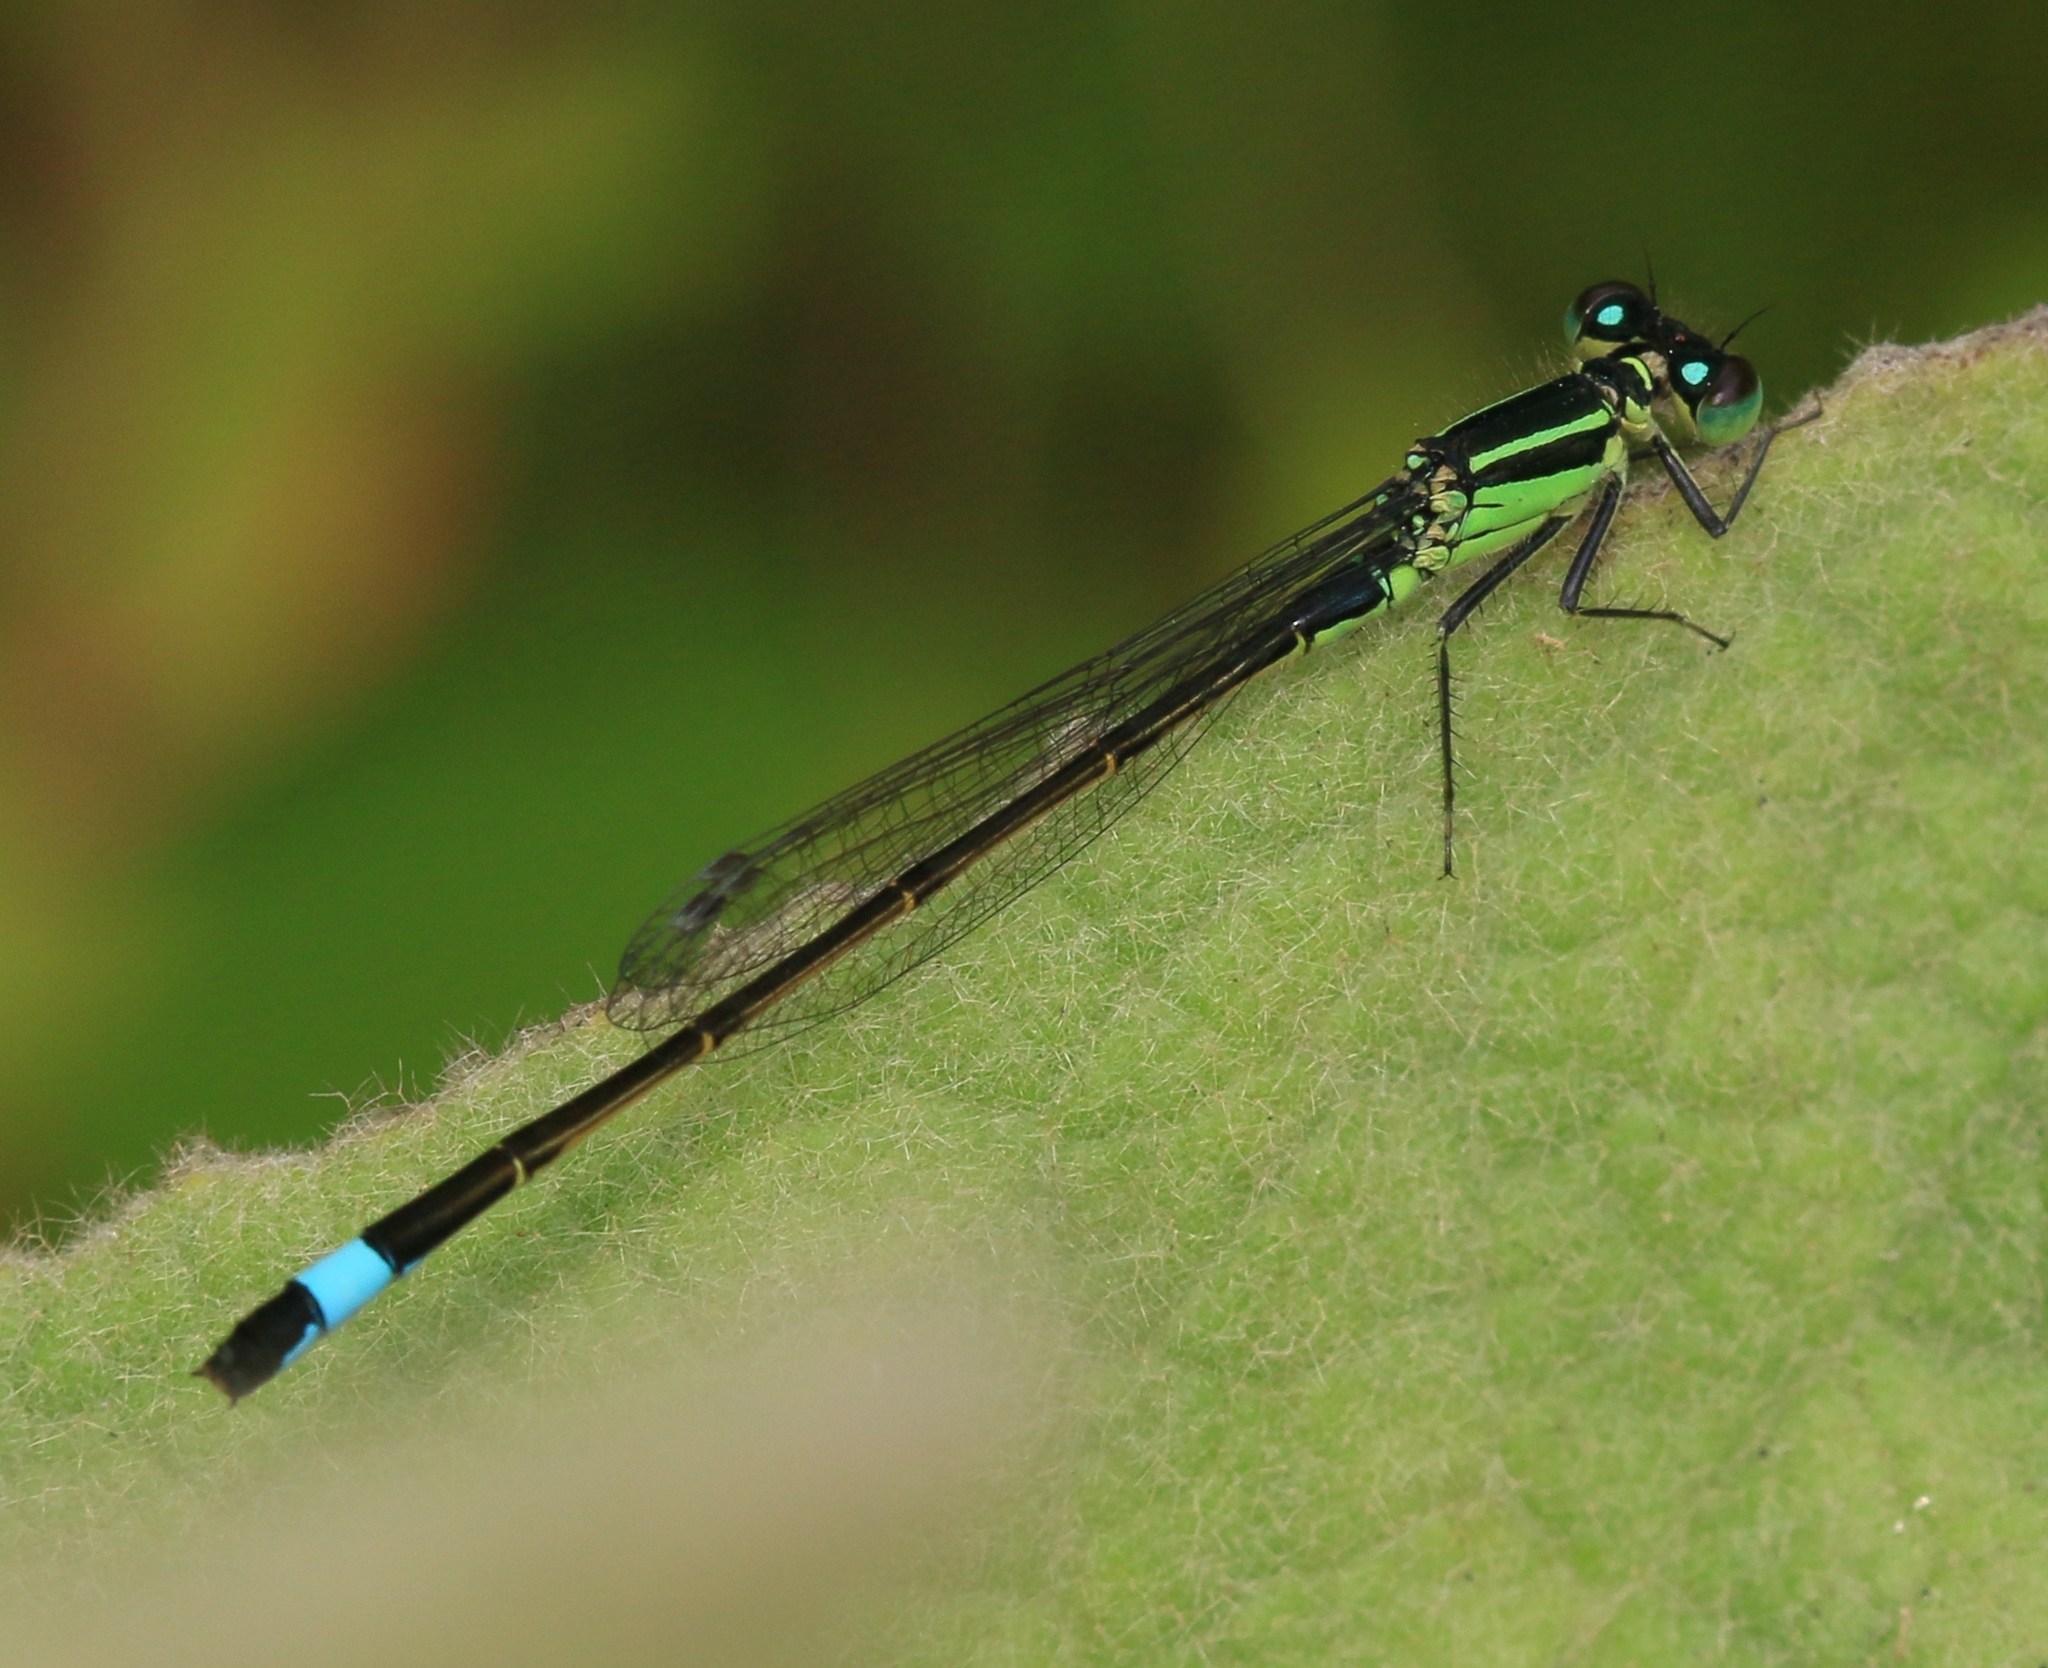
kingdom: Animalia
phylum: Arthropoda
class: Insecta
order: Odonata
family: Coenagrionidae
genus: Ischnura
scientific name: Ischnura elegans
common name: Blue-tailed damselfly
